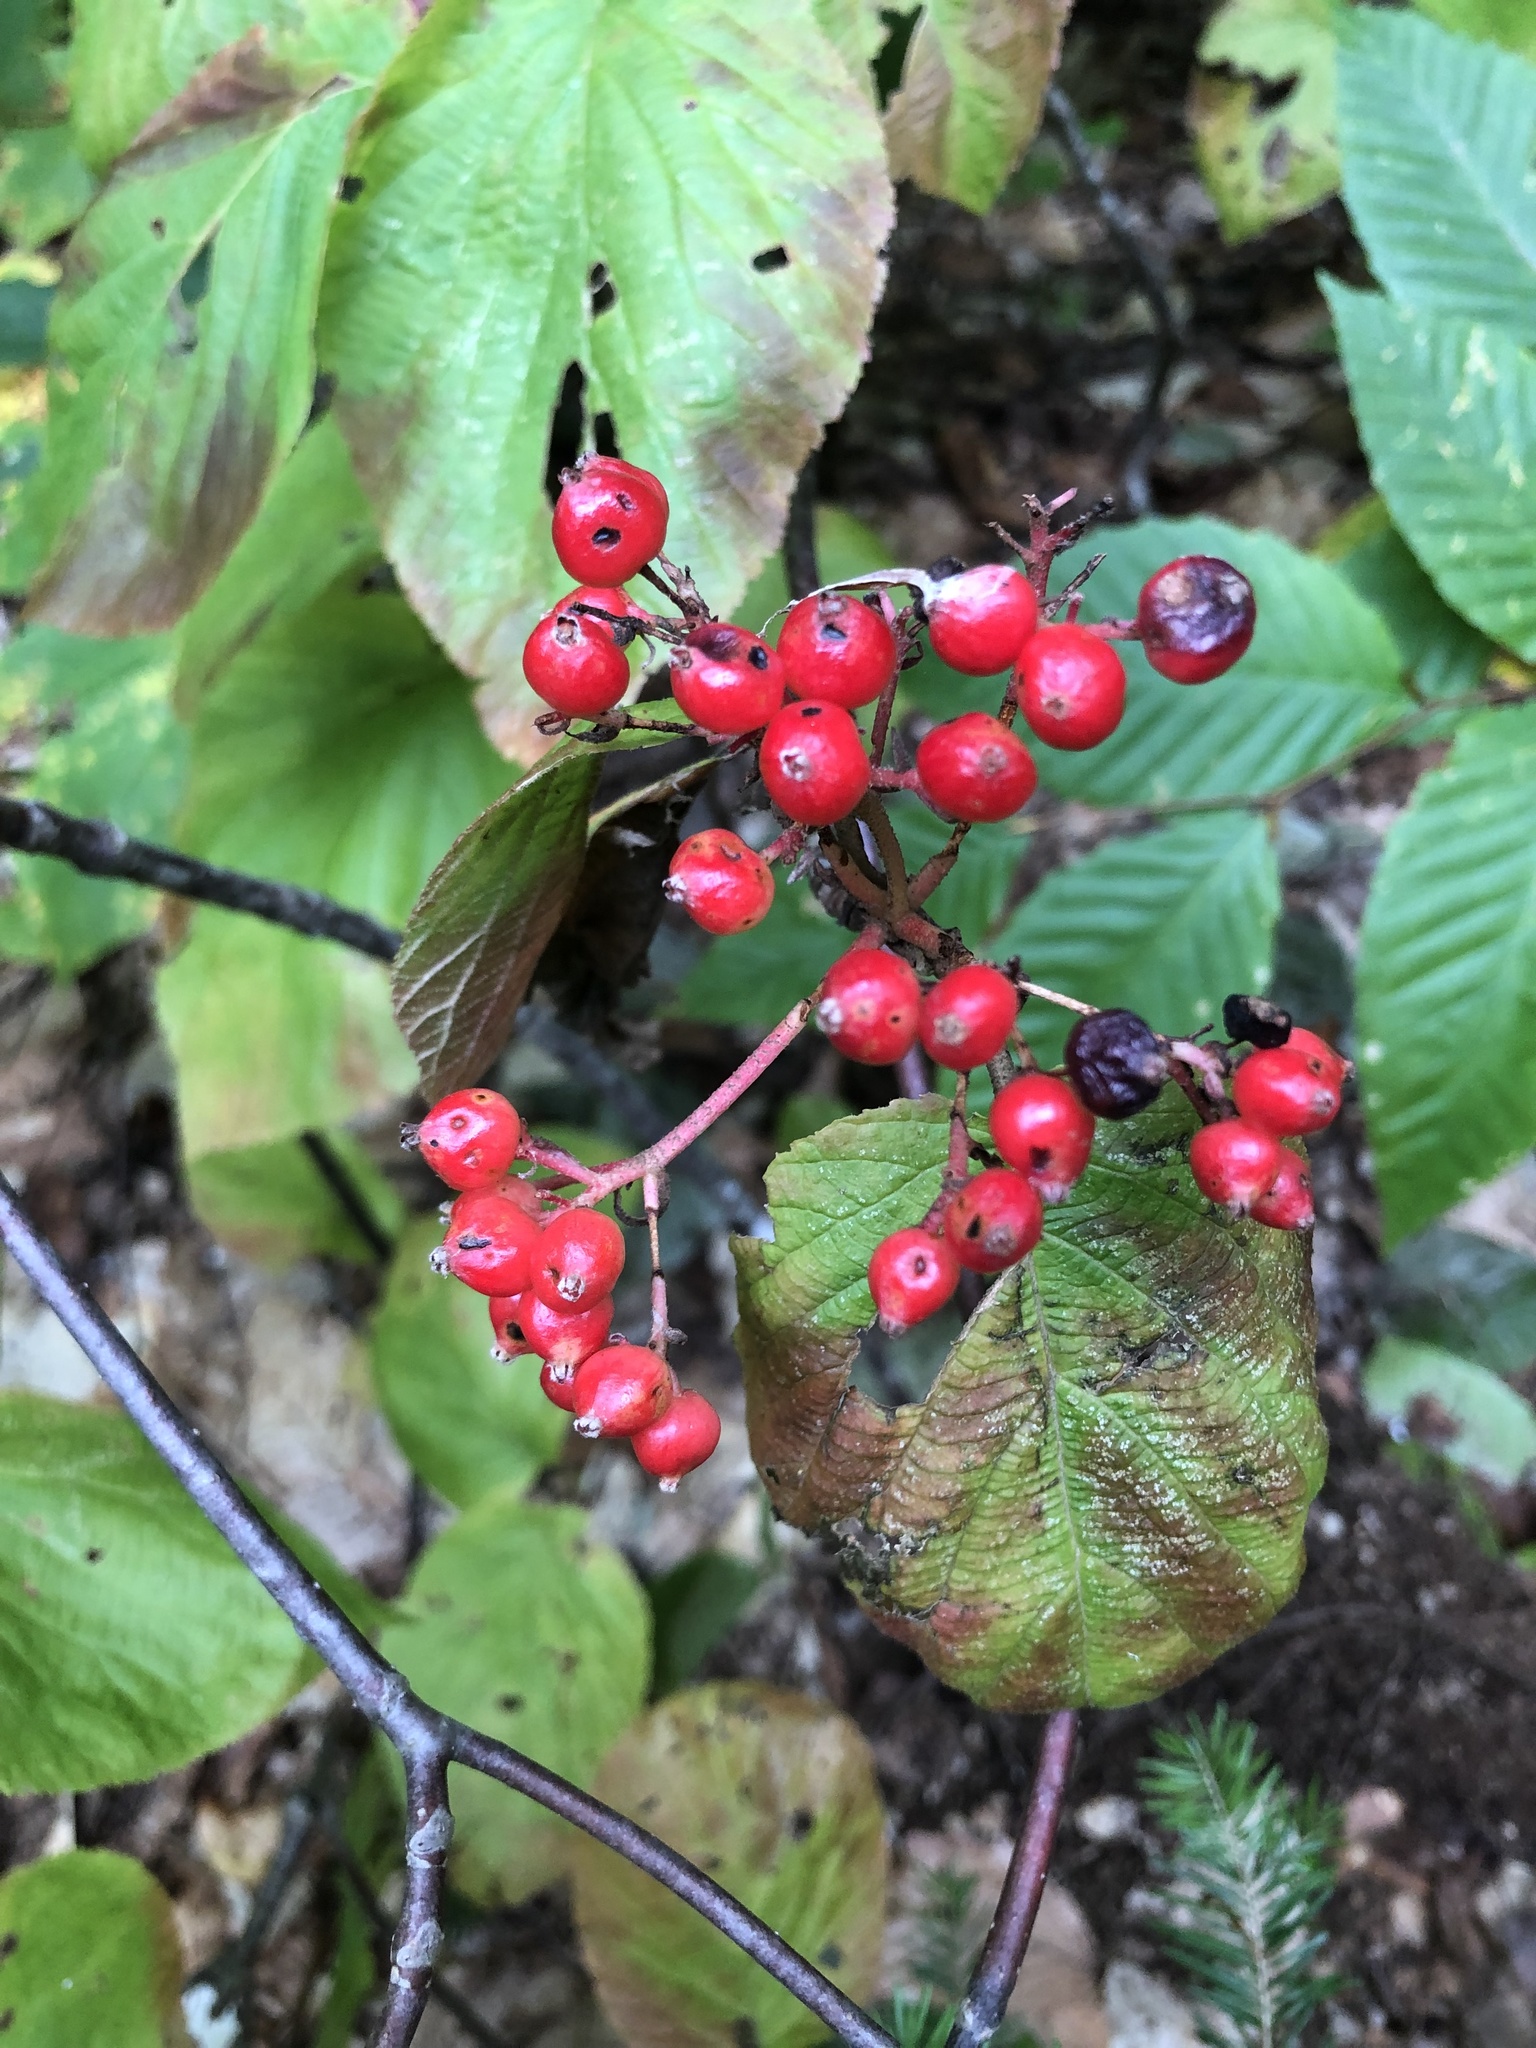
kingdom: Plantae
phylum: Tracheophyta
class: Magnoliopsida
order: Dipsacales
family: Viburnaceae
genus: Viburnum
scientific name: Viburnum lantanoides
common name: Hobblebush
